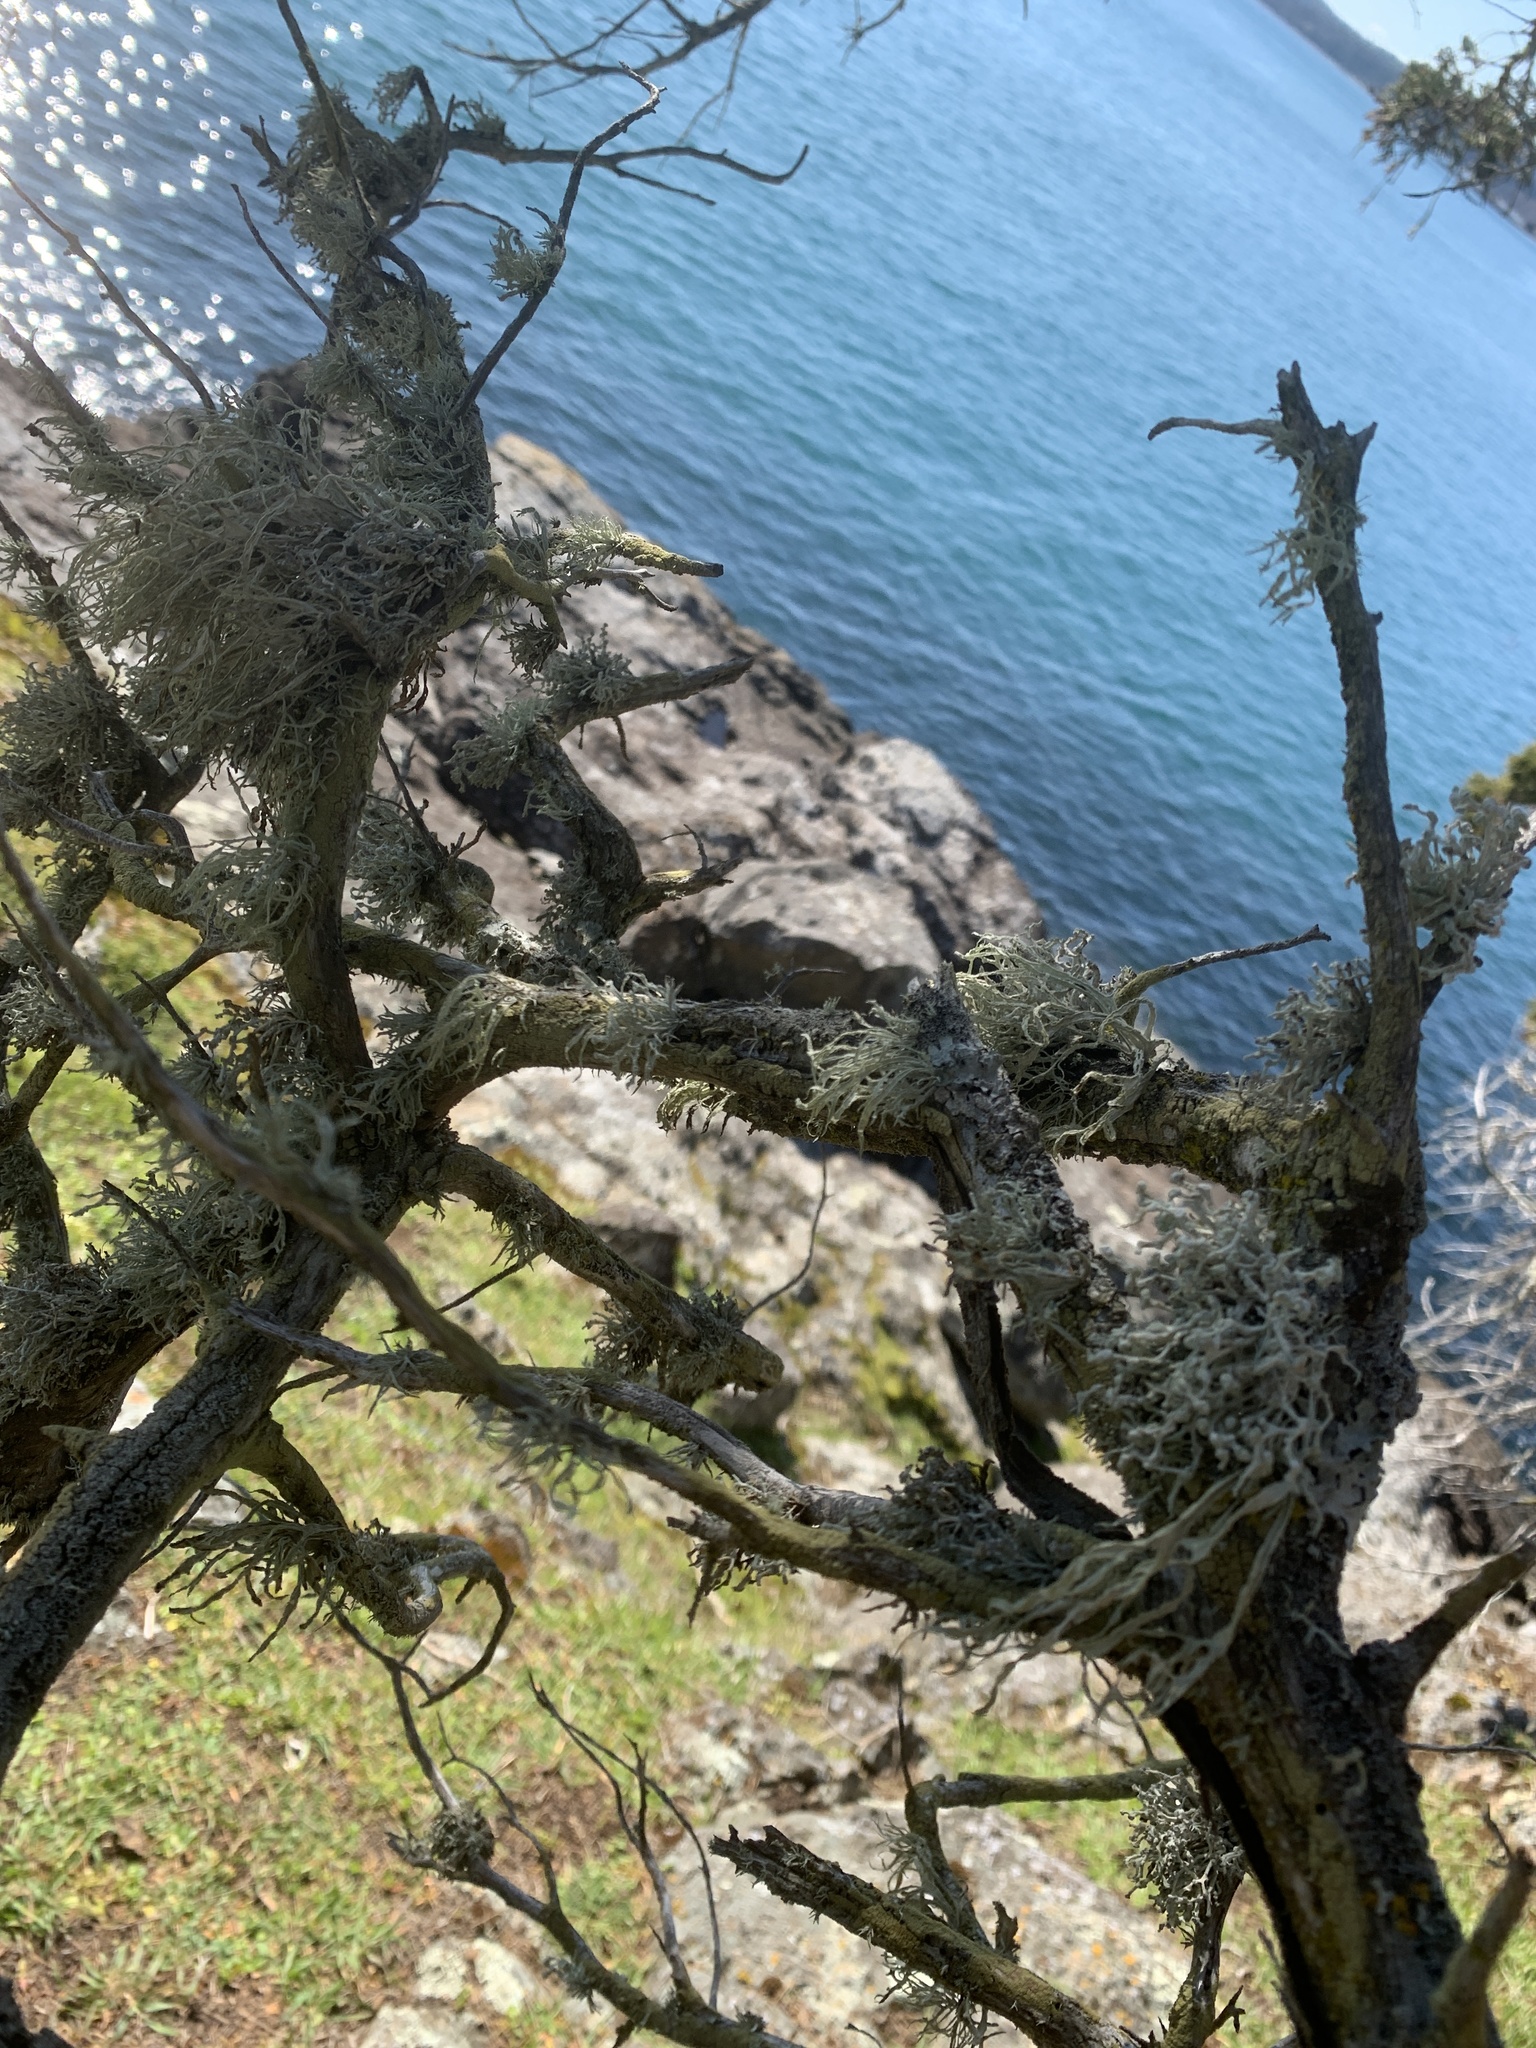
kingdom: Fungi
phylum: Ascomycota
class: Lecanoromycetes
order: Lecanorales
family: Ramalinaceae
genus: Niebla
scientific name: Niebla cephalota
